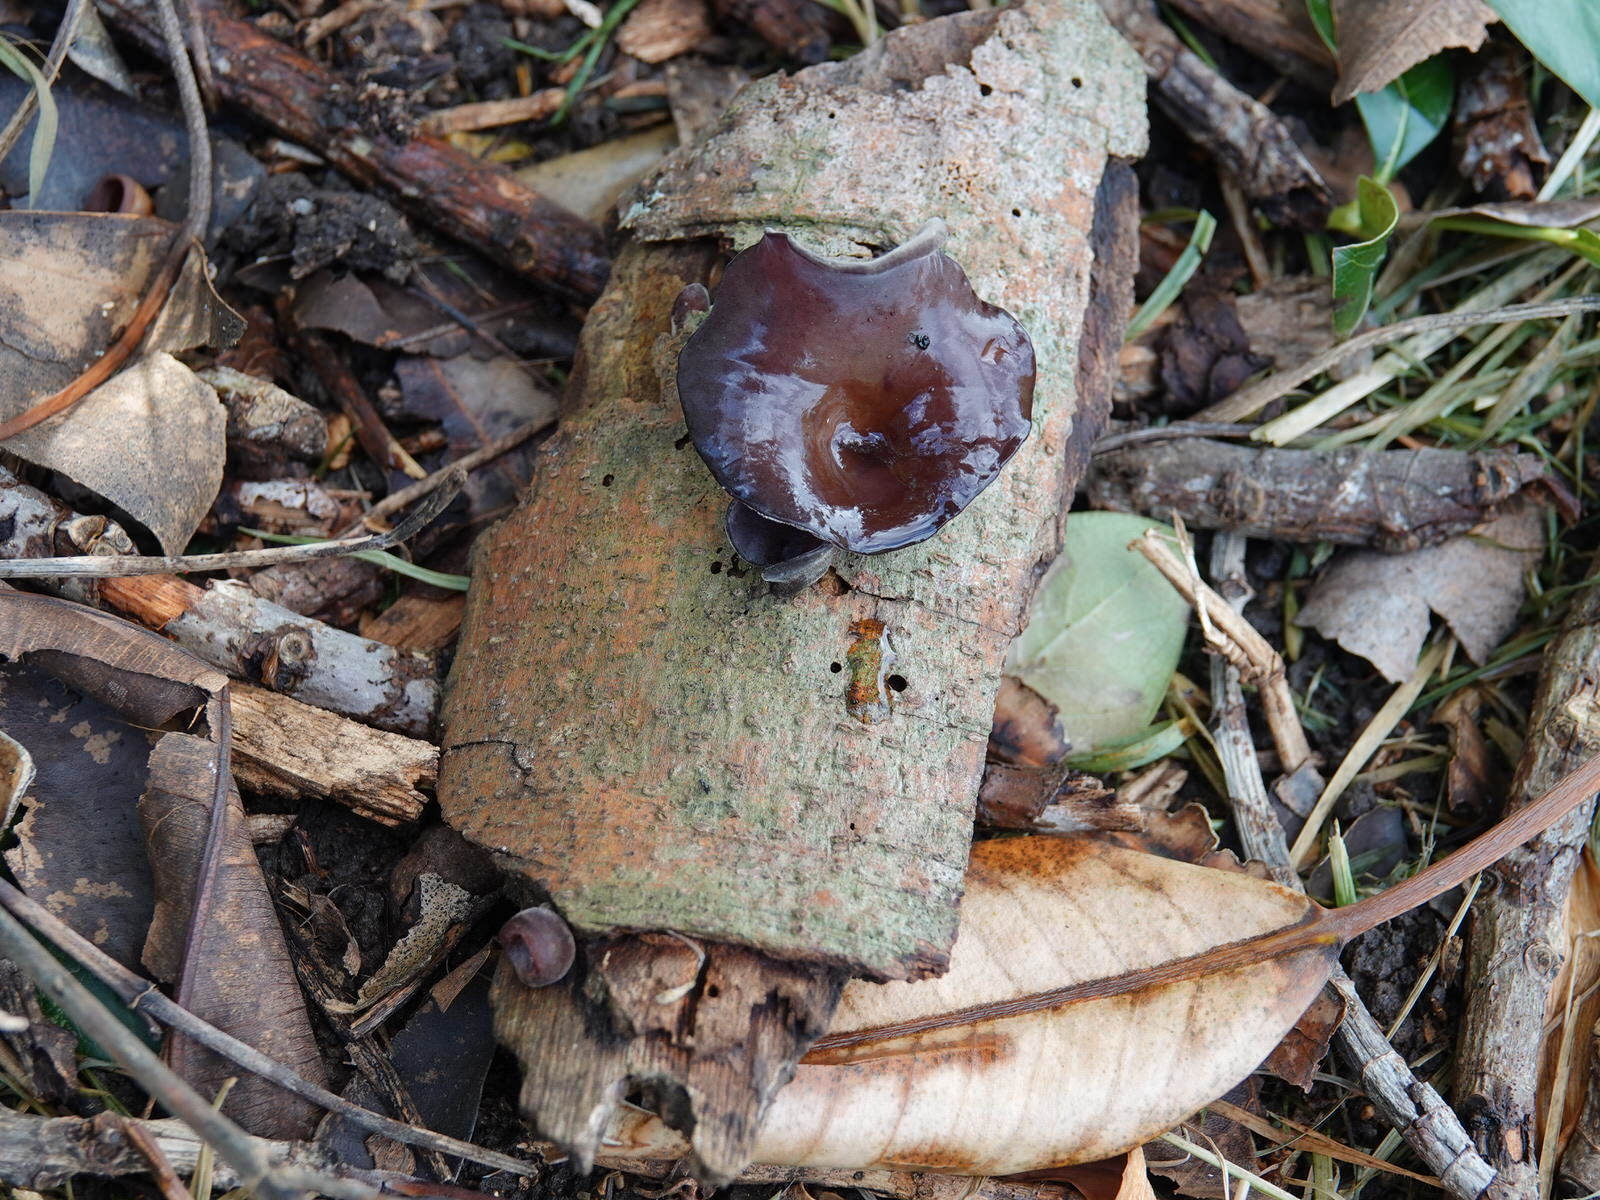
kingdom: Fungi
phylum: Basidiomycota
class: Agaricomycetes
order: Auriculariales
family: Auriculariaceae
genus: Auricularia
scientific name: Auricularia cornea
